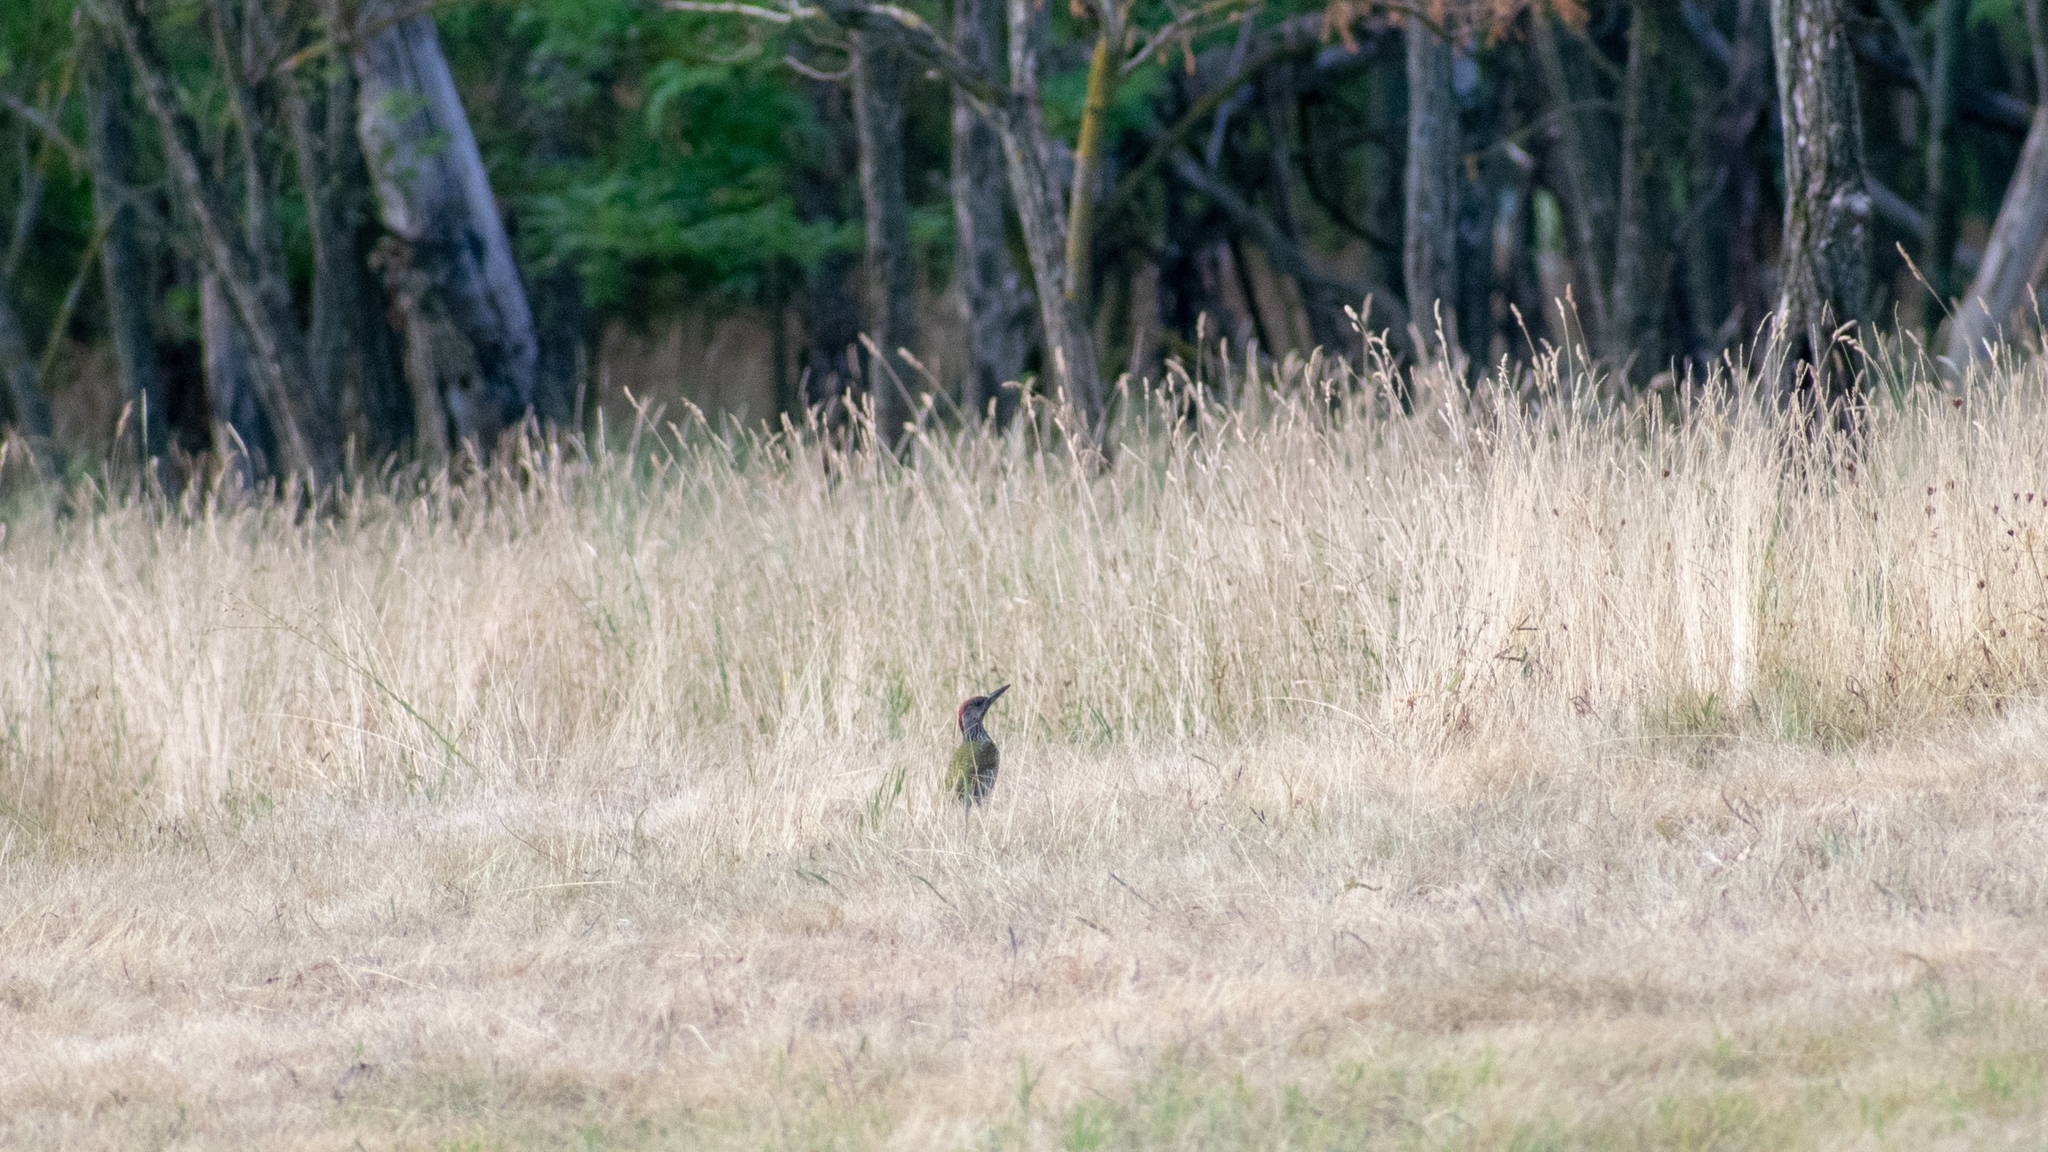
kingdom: Animalia
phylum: Chordata
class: Aves
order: Piciformes
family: Picidae
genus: Picus
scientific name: Picus viridis
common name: European green woodpecker
